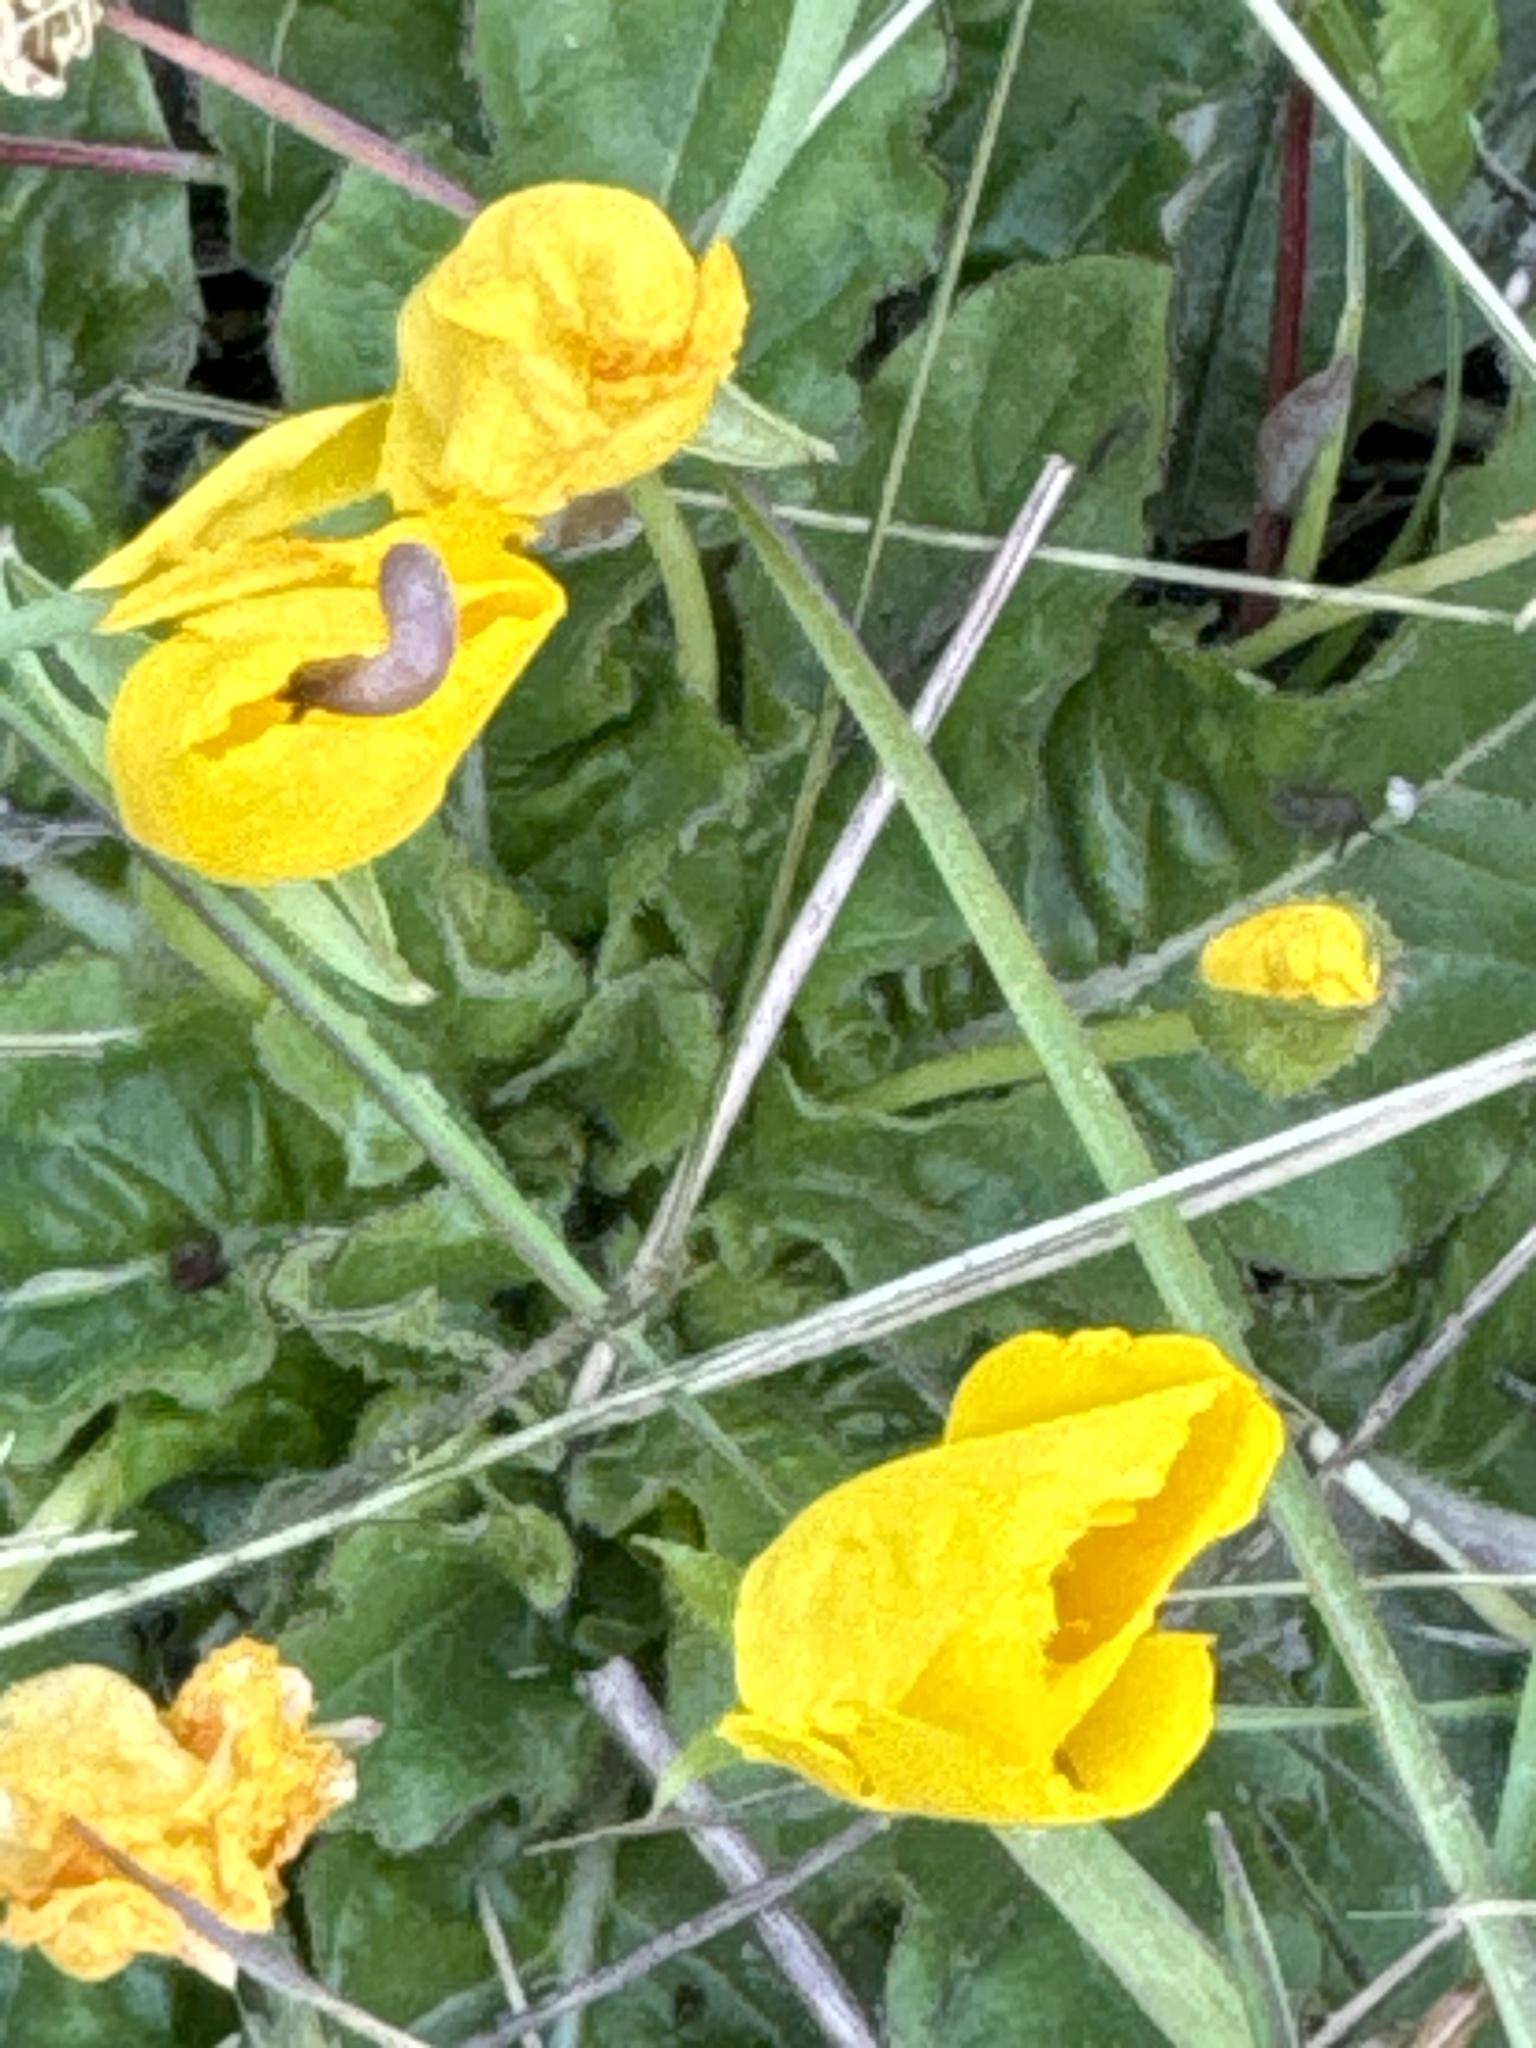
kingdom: Plantae
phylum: Tracheophyta
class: Magnoliopsida
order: Myrtales
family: Onagraceae
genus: Taraxia
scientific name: Taraxia ovata
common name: Goldeneggs
